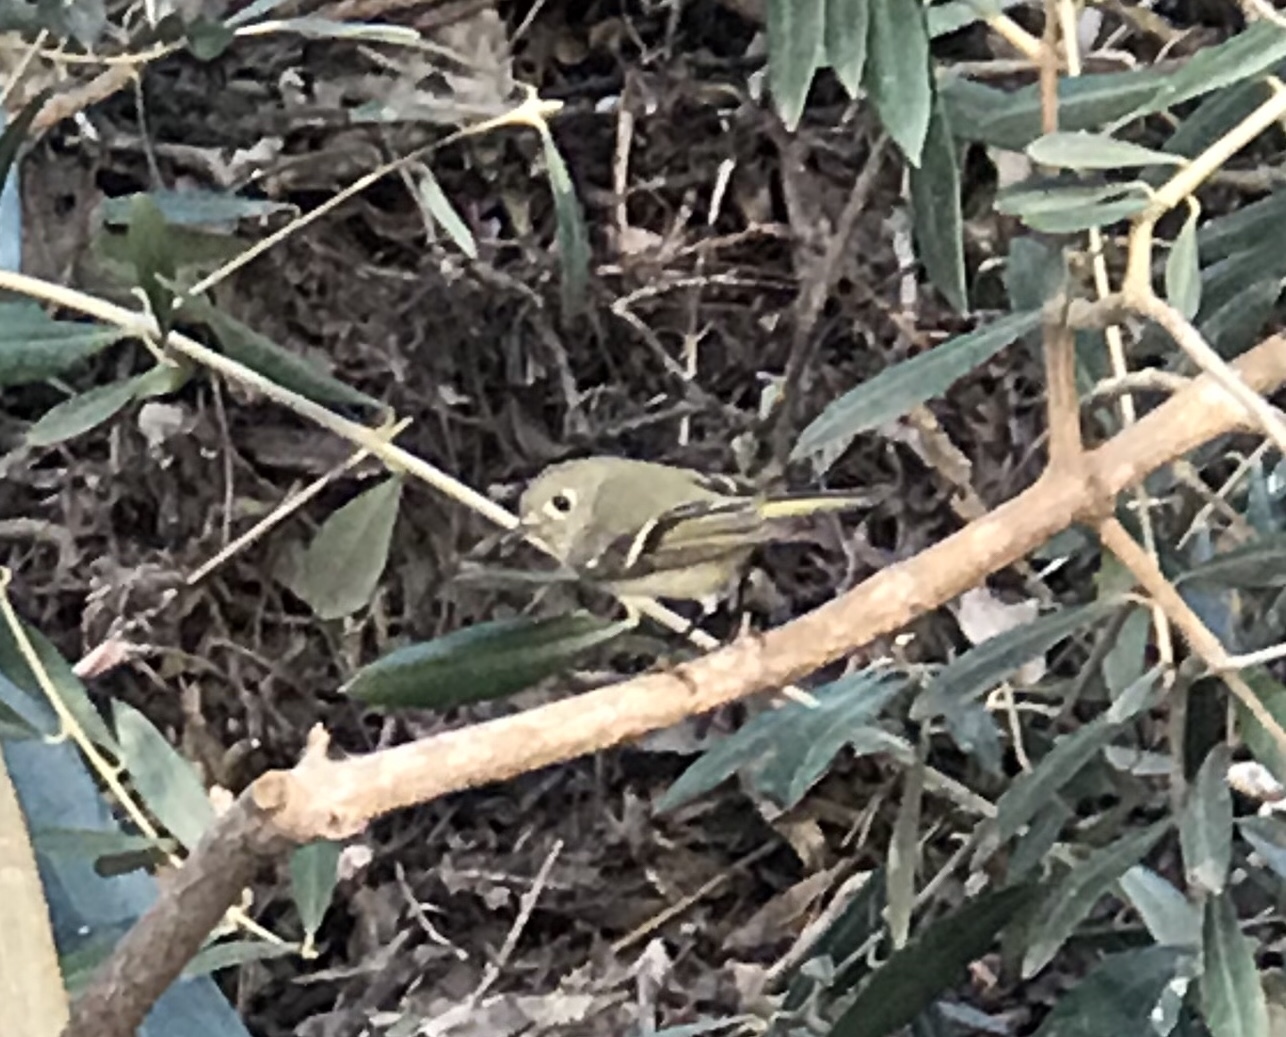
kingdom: Animalia
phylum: Chordata
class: Aves
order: Passeriformes
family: Regulidae
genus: Regulus
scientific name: Regulus calendula
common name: Ruby-crowned kinglet
